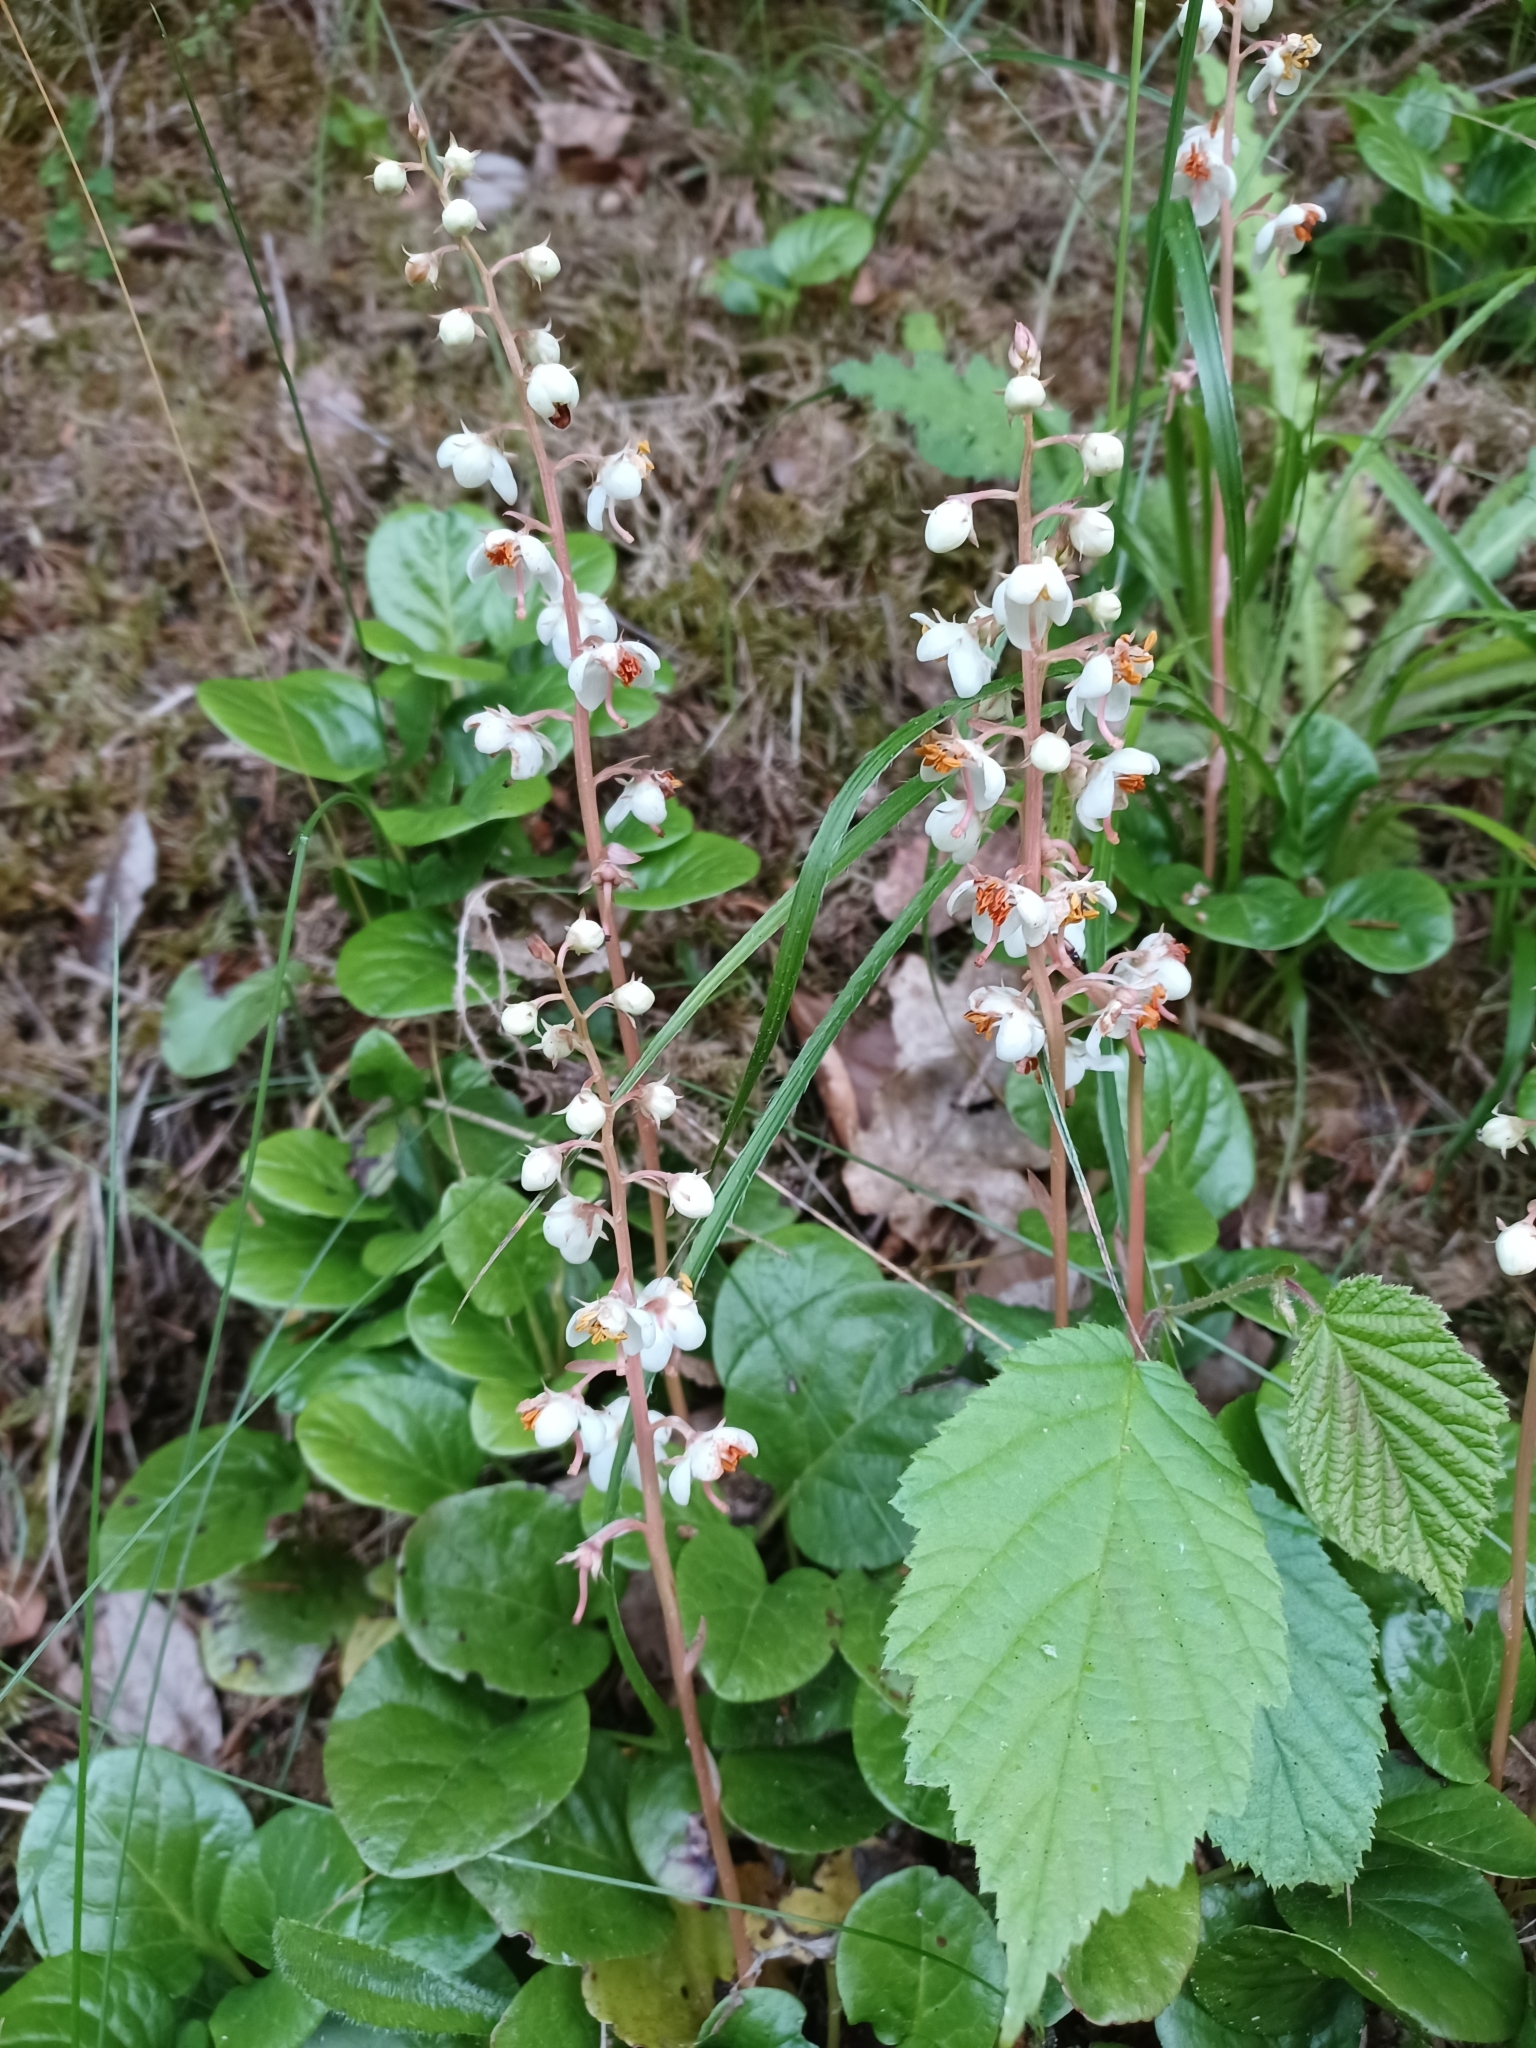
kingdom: Plantae
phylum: Tracheophyta
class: Magnoliopsida
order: Ericales
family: Ericaceae
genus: Pyrola
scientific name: Pyrola rotundifolia
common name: Round-leaved wintergreen
